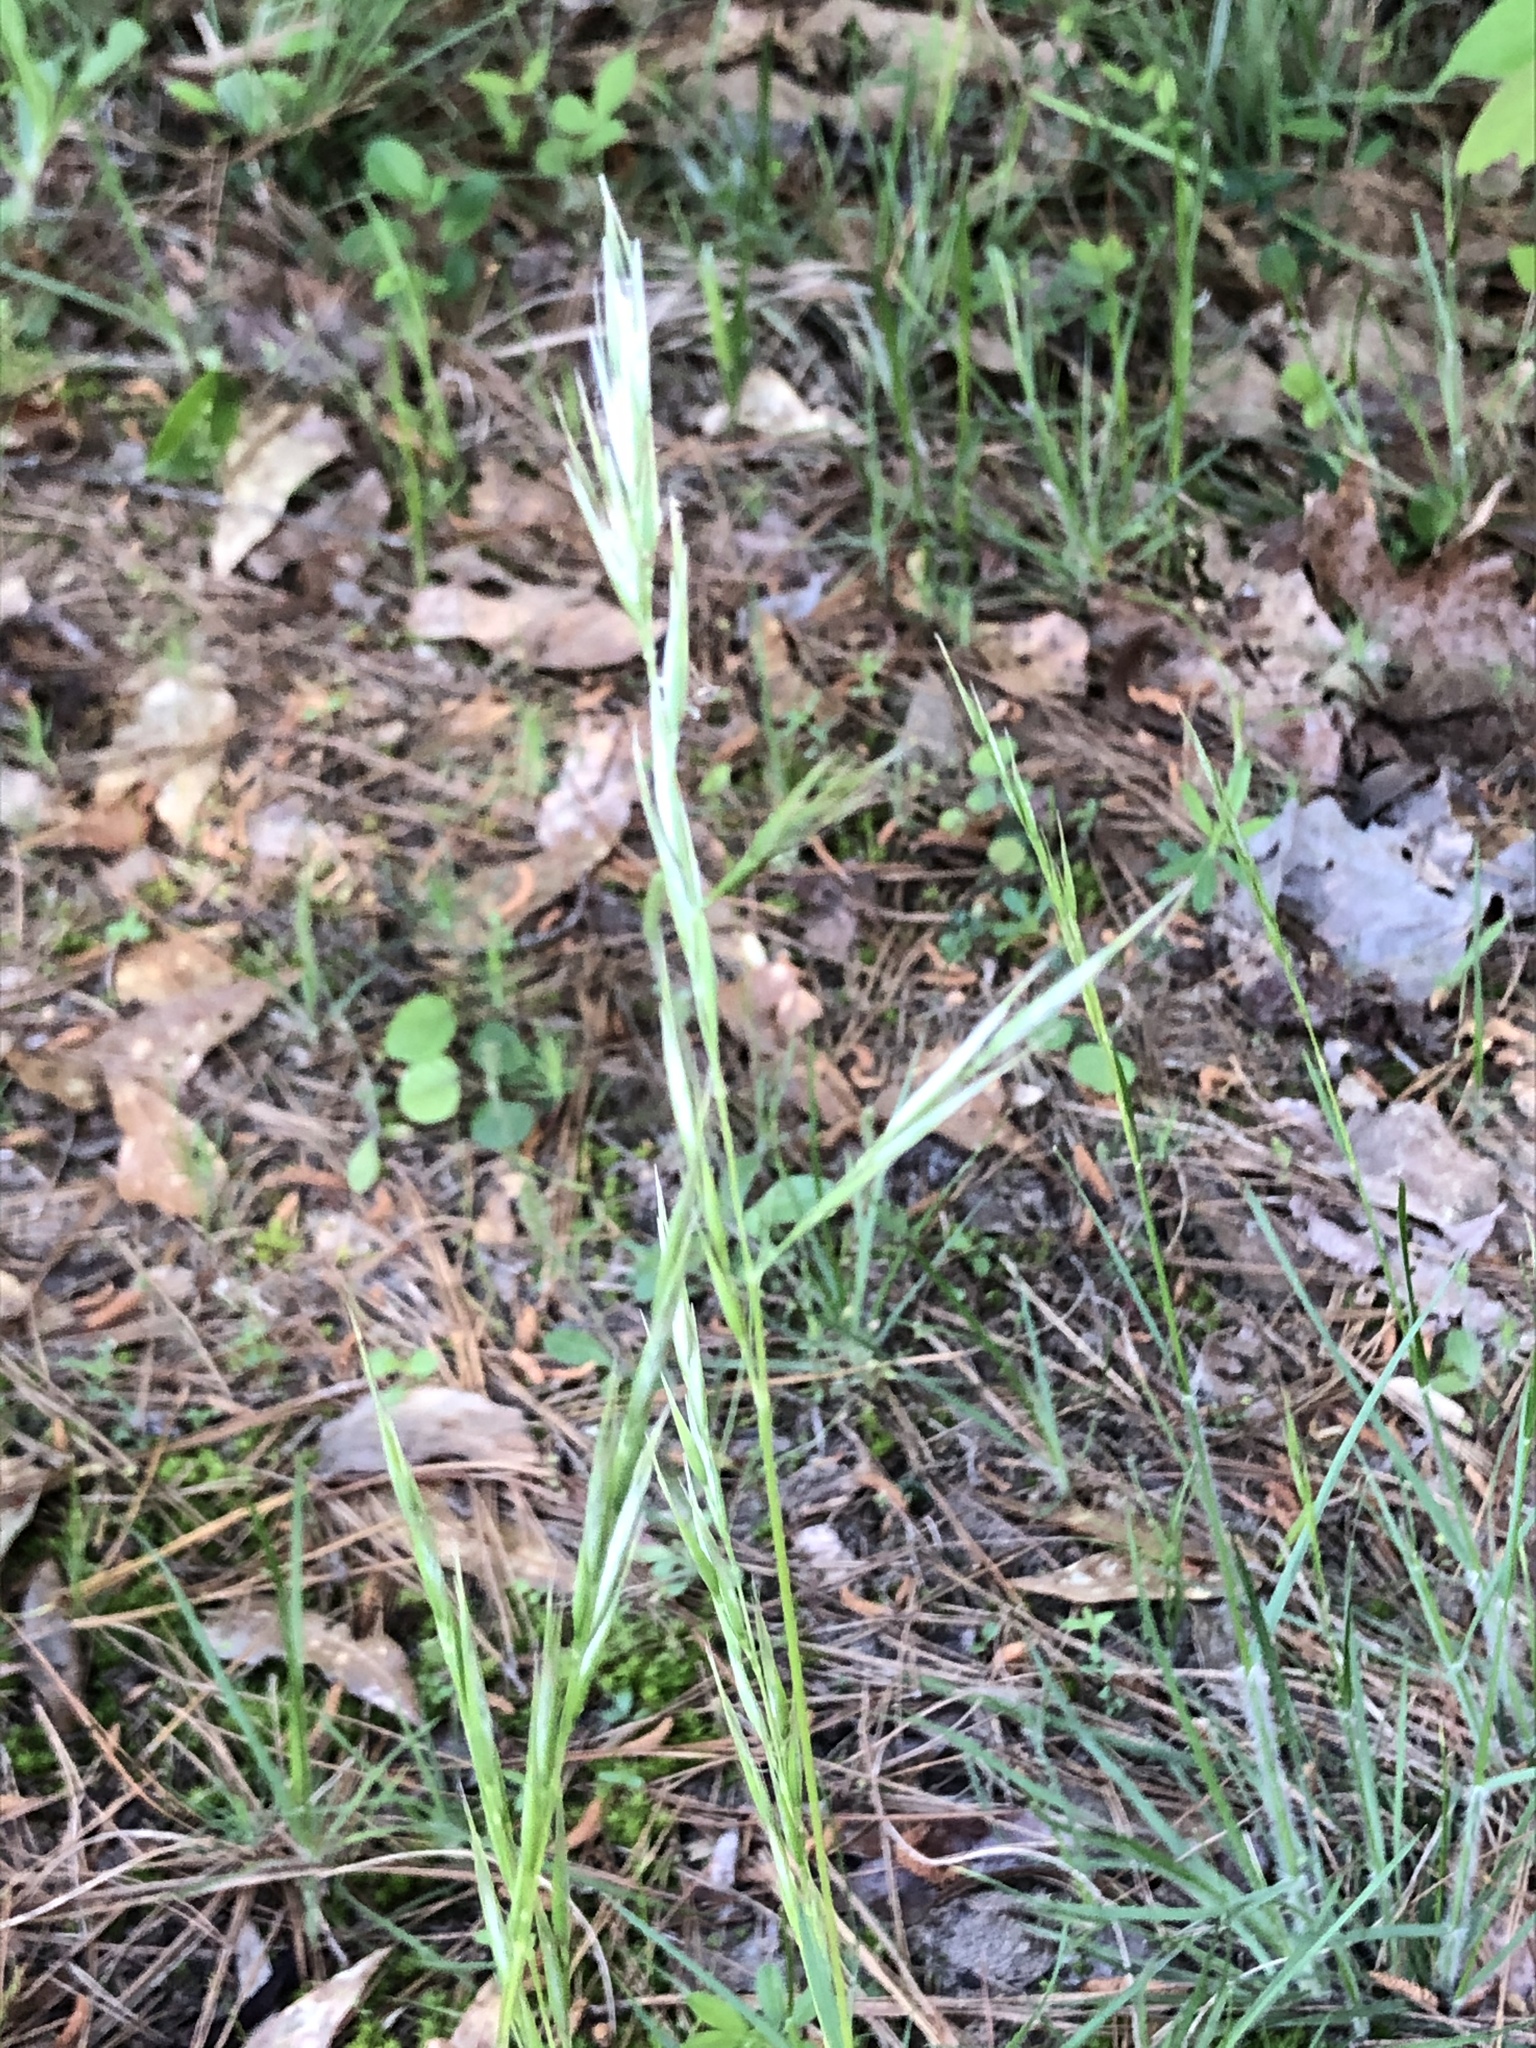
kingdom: Plantae
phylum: Tracheophyta
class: Liliopsida
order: Poales
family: Poaceae
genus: Danthonia
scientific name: Danthonia sericea
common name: Downy danthonia
